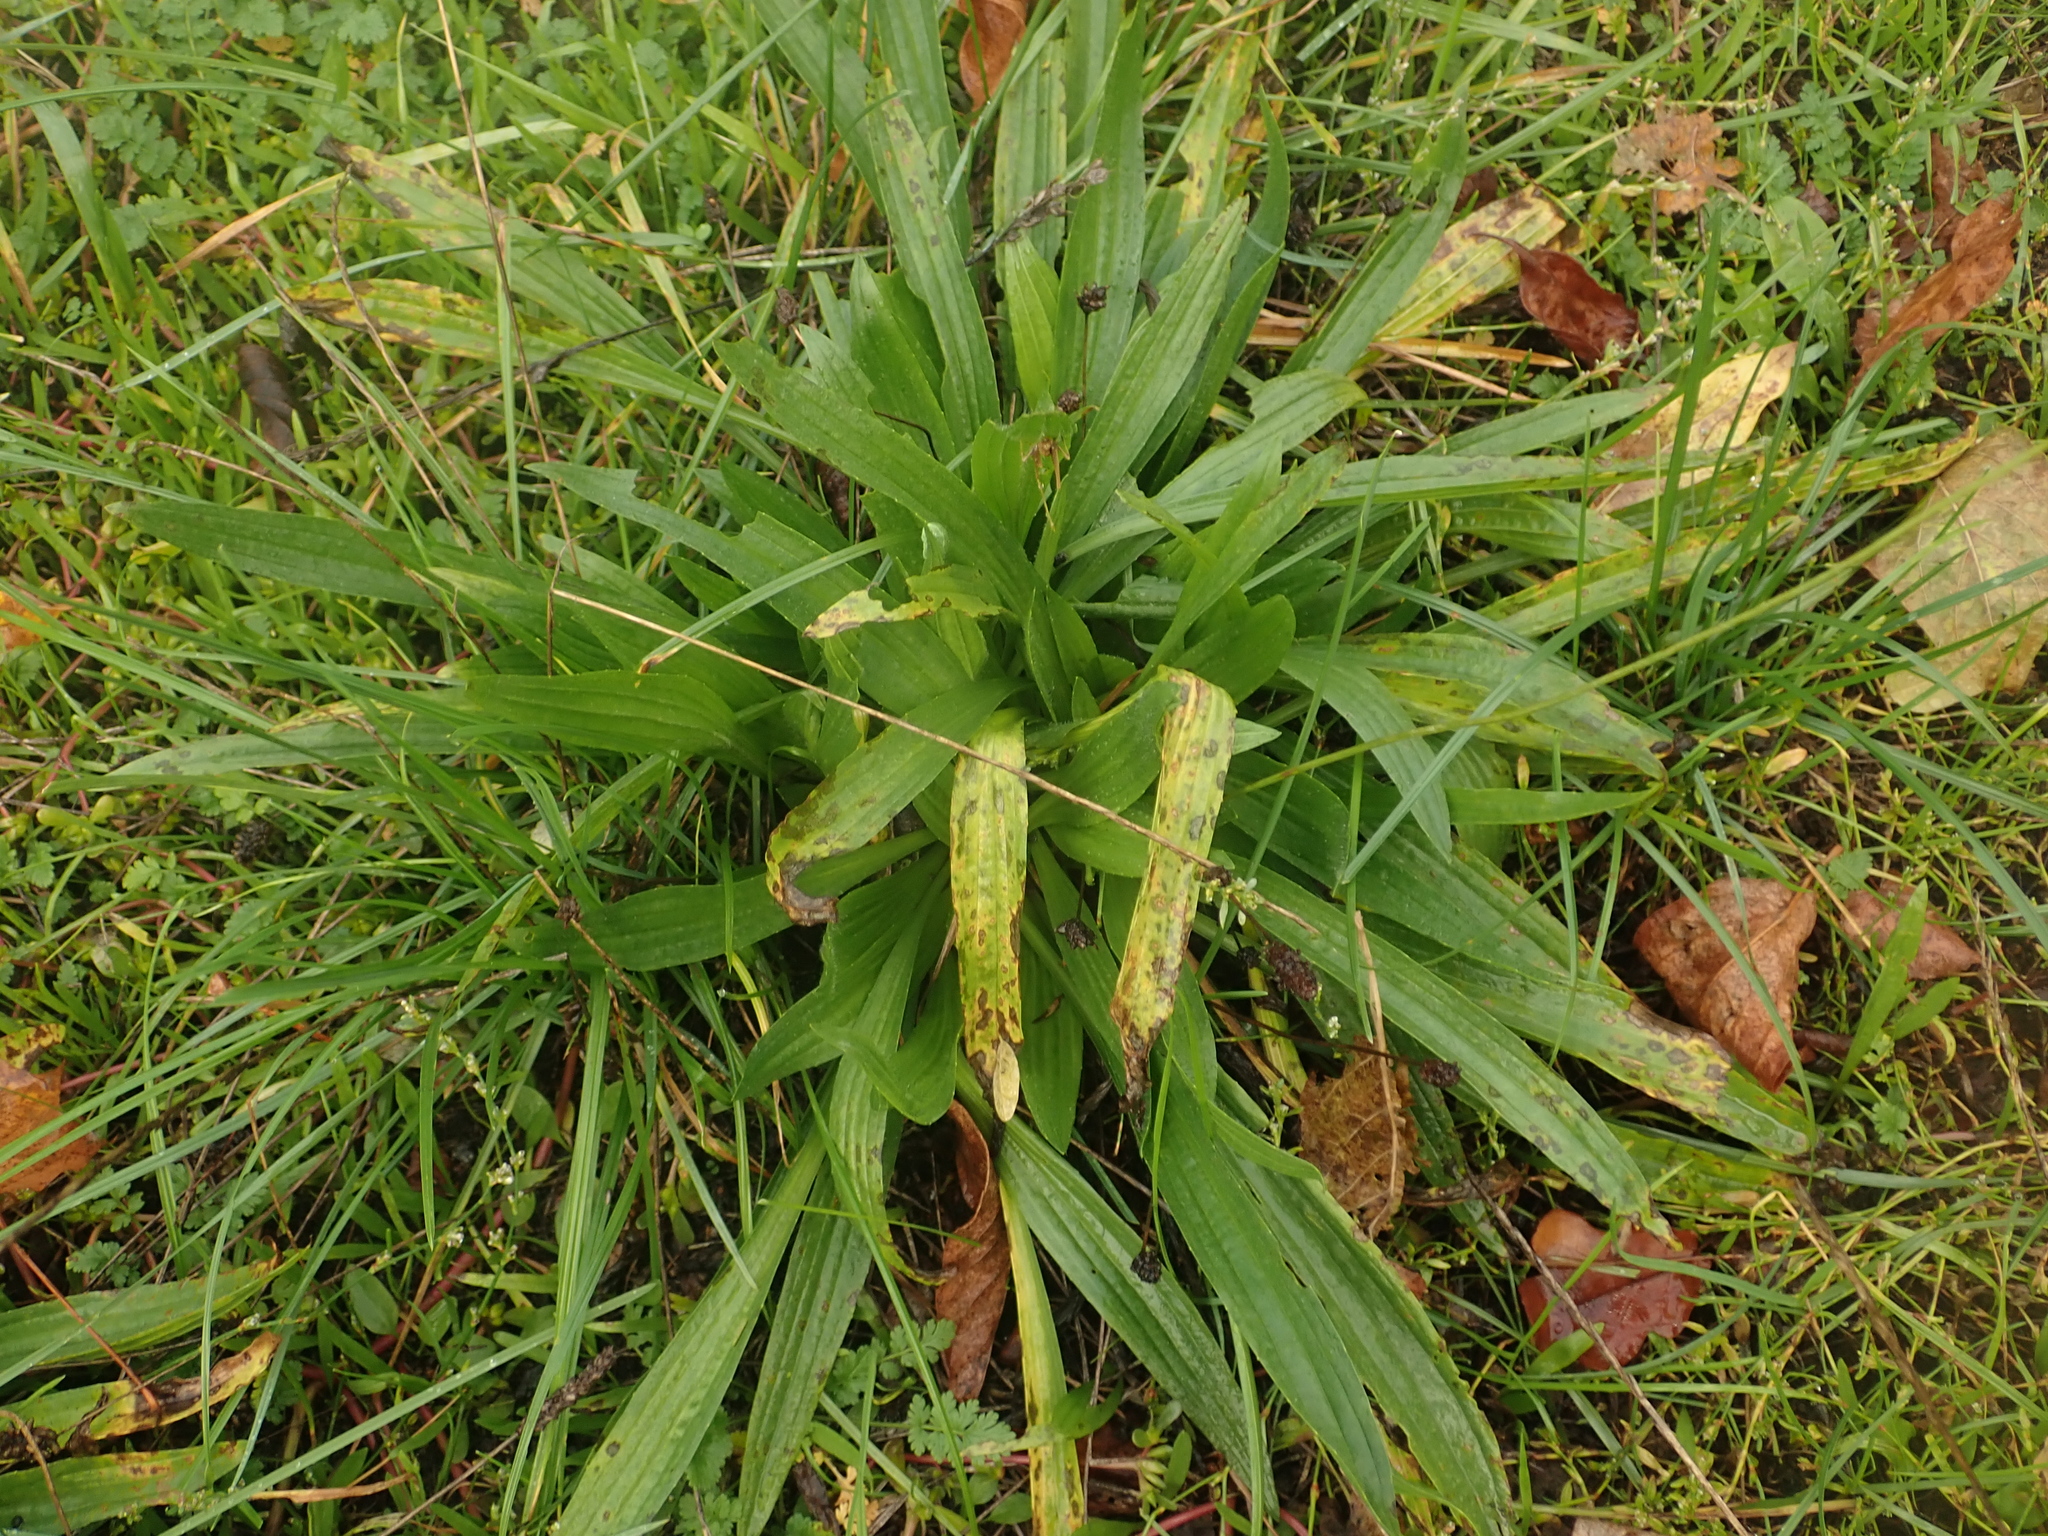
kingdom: Plantae
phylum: Tracheophyta
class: Magnoliopsida
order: Lamiales
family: Plantaginaceae
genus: Plantago
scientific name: Plantago lanceolata
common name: Ribwort plantain
